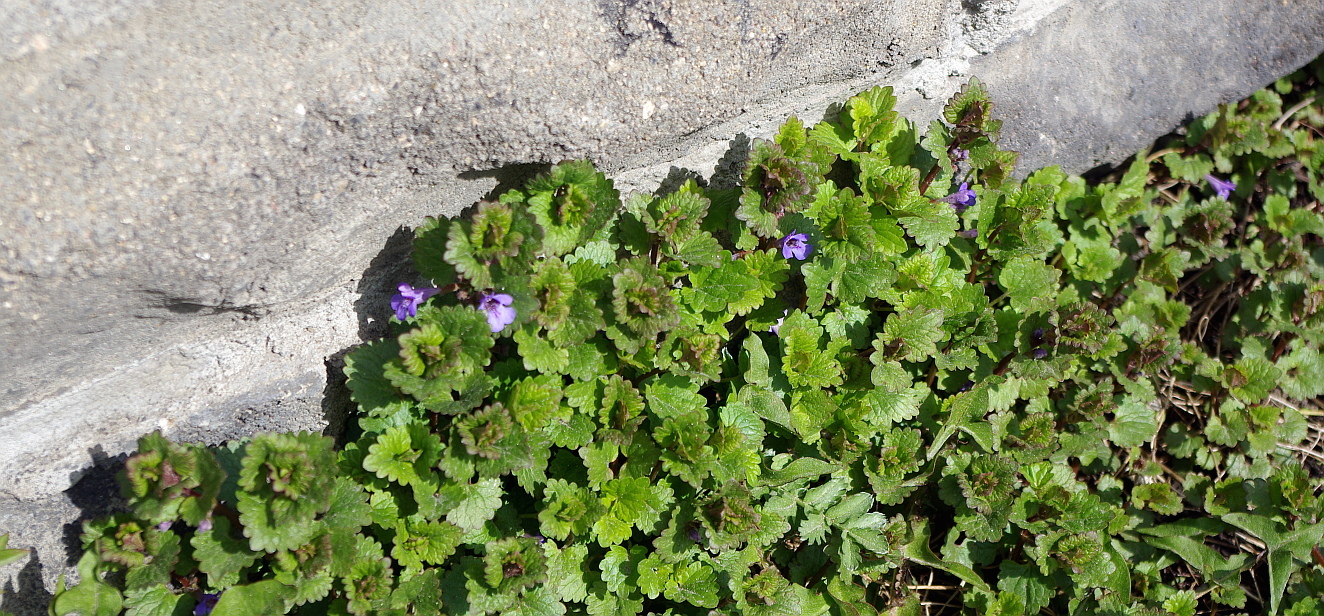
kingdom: Plantae
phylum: Tracheophyta
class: Magnoliopsida
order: Lamiales
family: Lamiaceae
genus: Glechoma
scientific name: Glechoma hederacea
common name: Ground ivy
